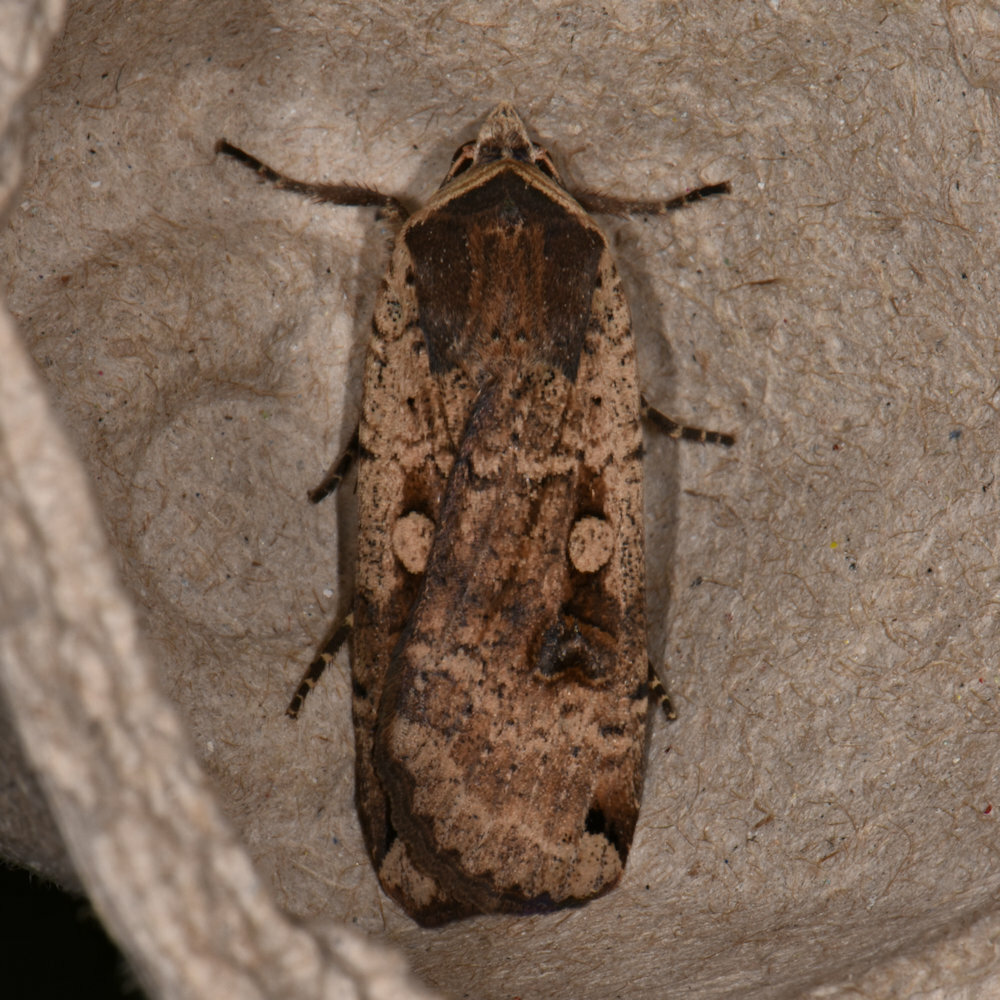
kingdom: Animalia
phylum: Arthropoda
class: Insecta
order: Lepidoptera
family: Noctuidae
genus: Noctua
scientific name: Noctua pronuba
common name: Large yellow underwing
